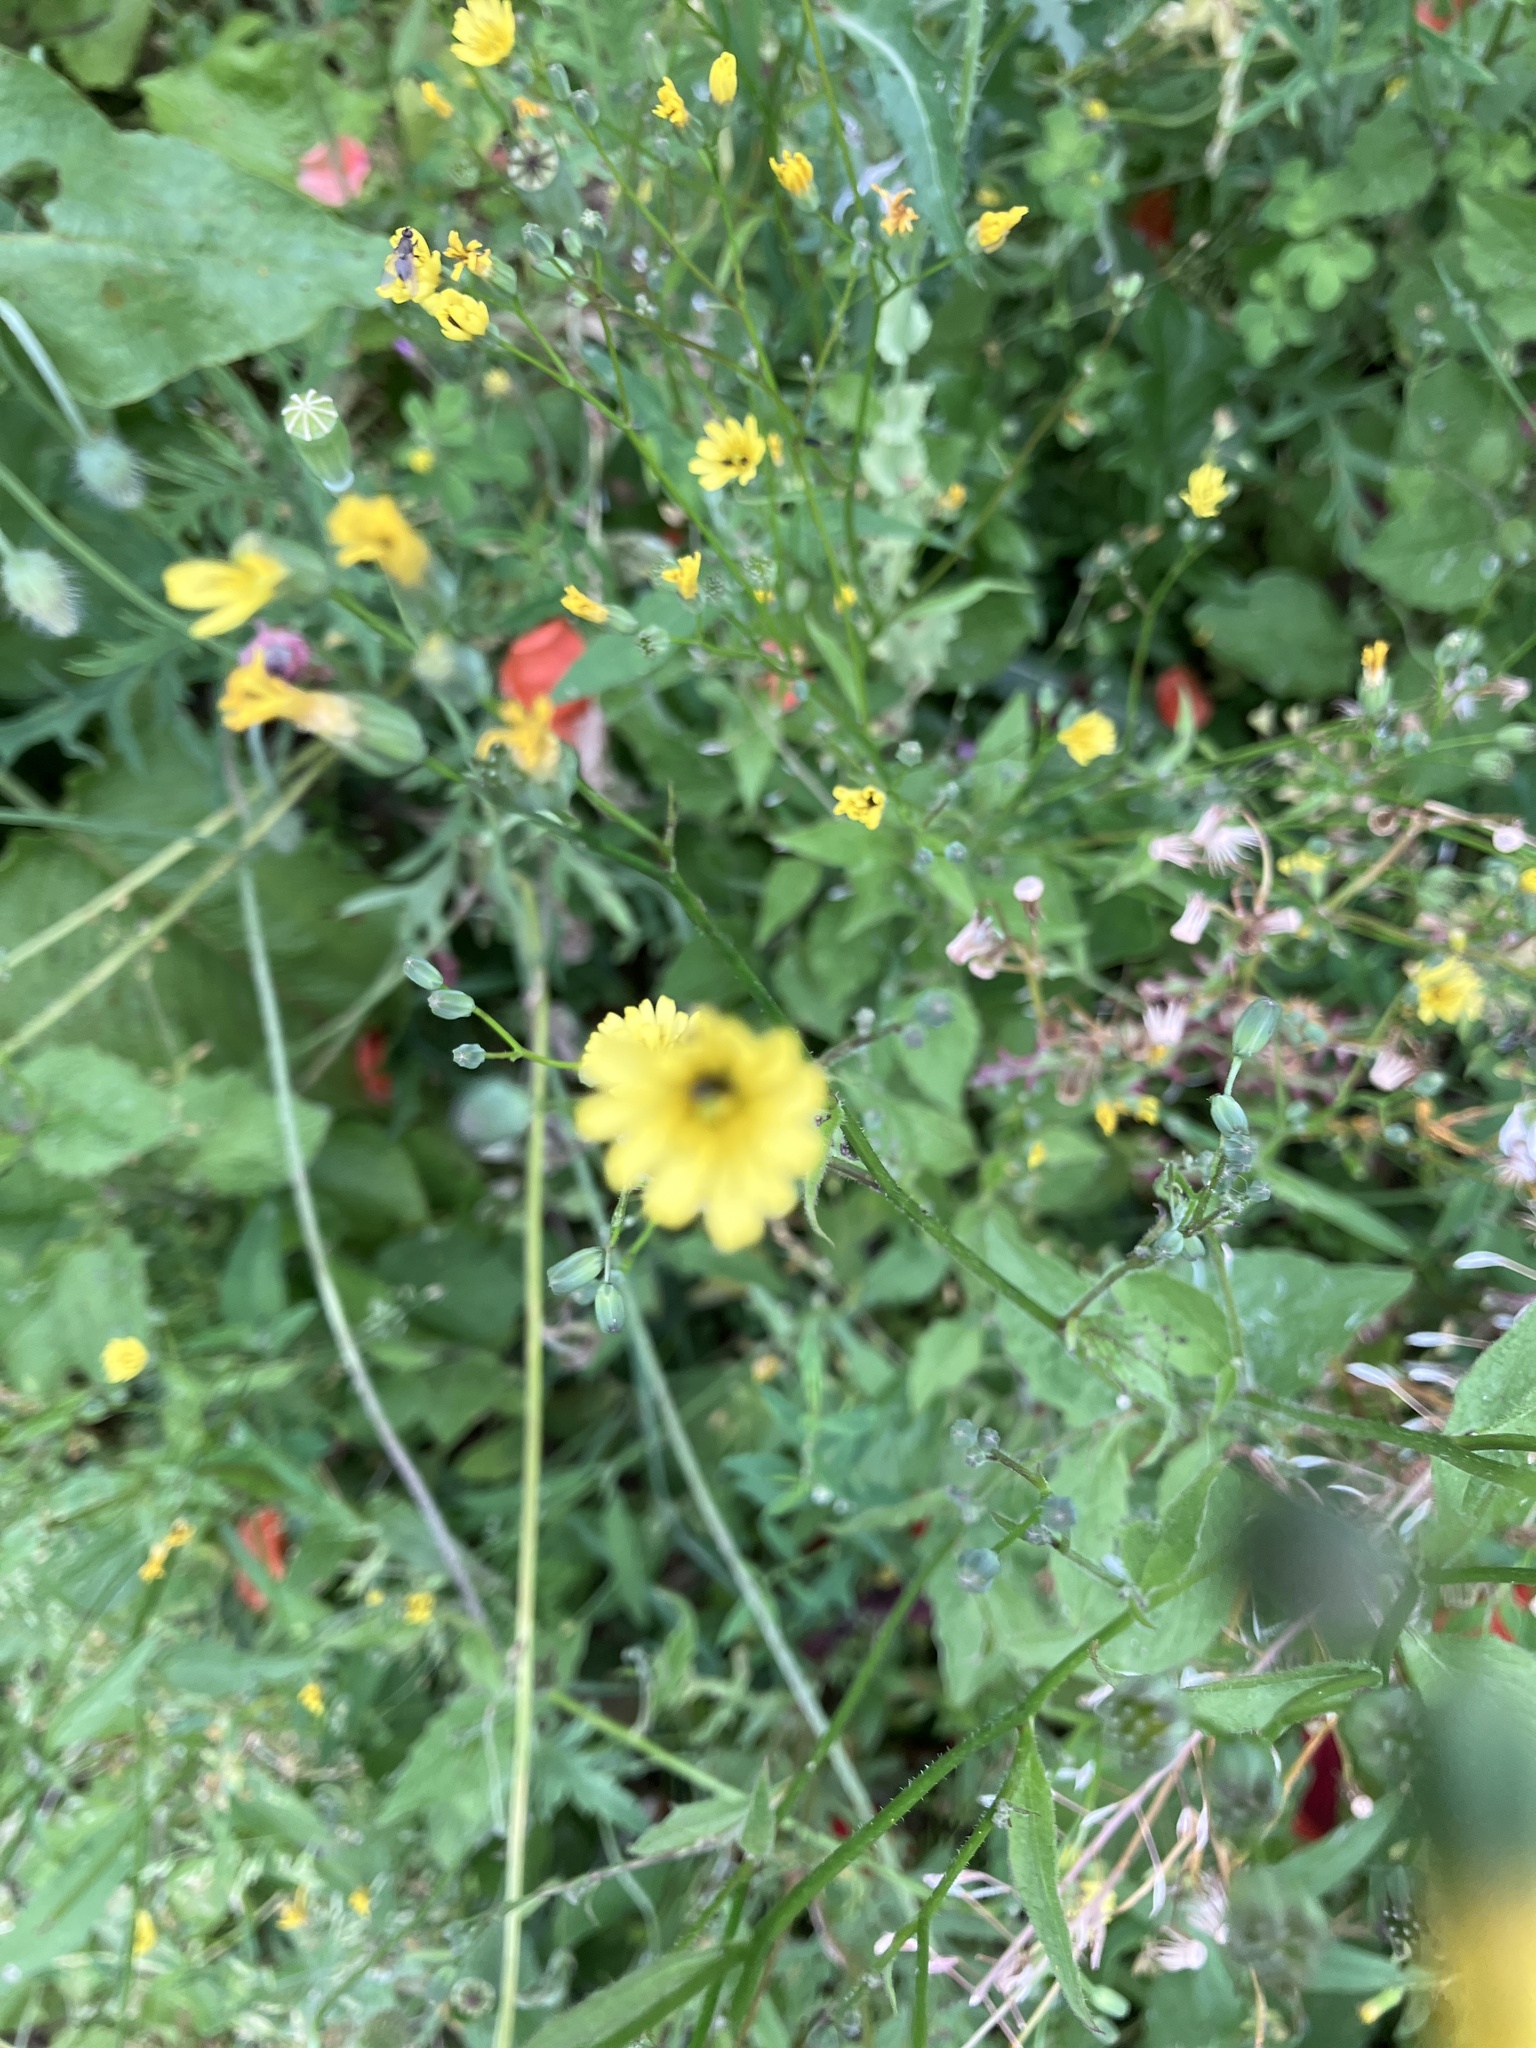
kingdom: Plantae
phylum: Tracheophyta
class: Magnoliopsida
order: Asterales
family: Asteraceae
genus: Lapsana
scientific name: Lapsana communis
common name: Nipplewort
